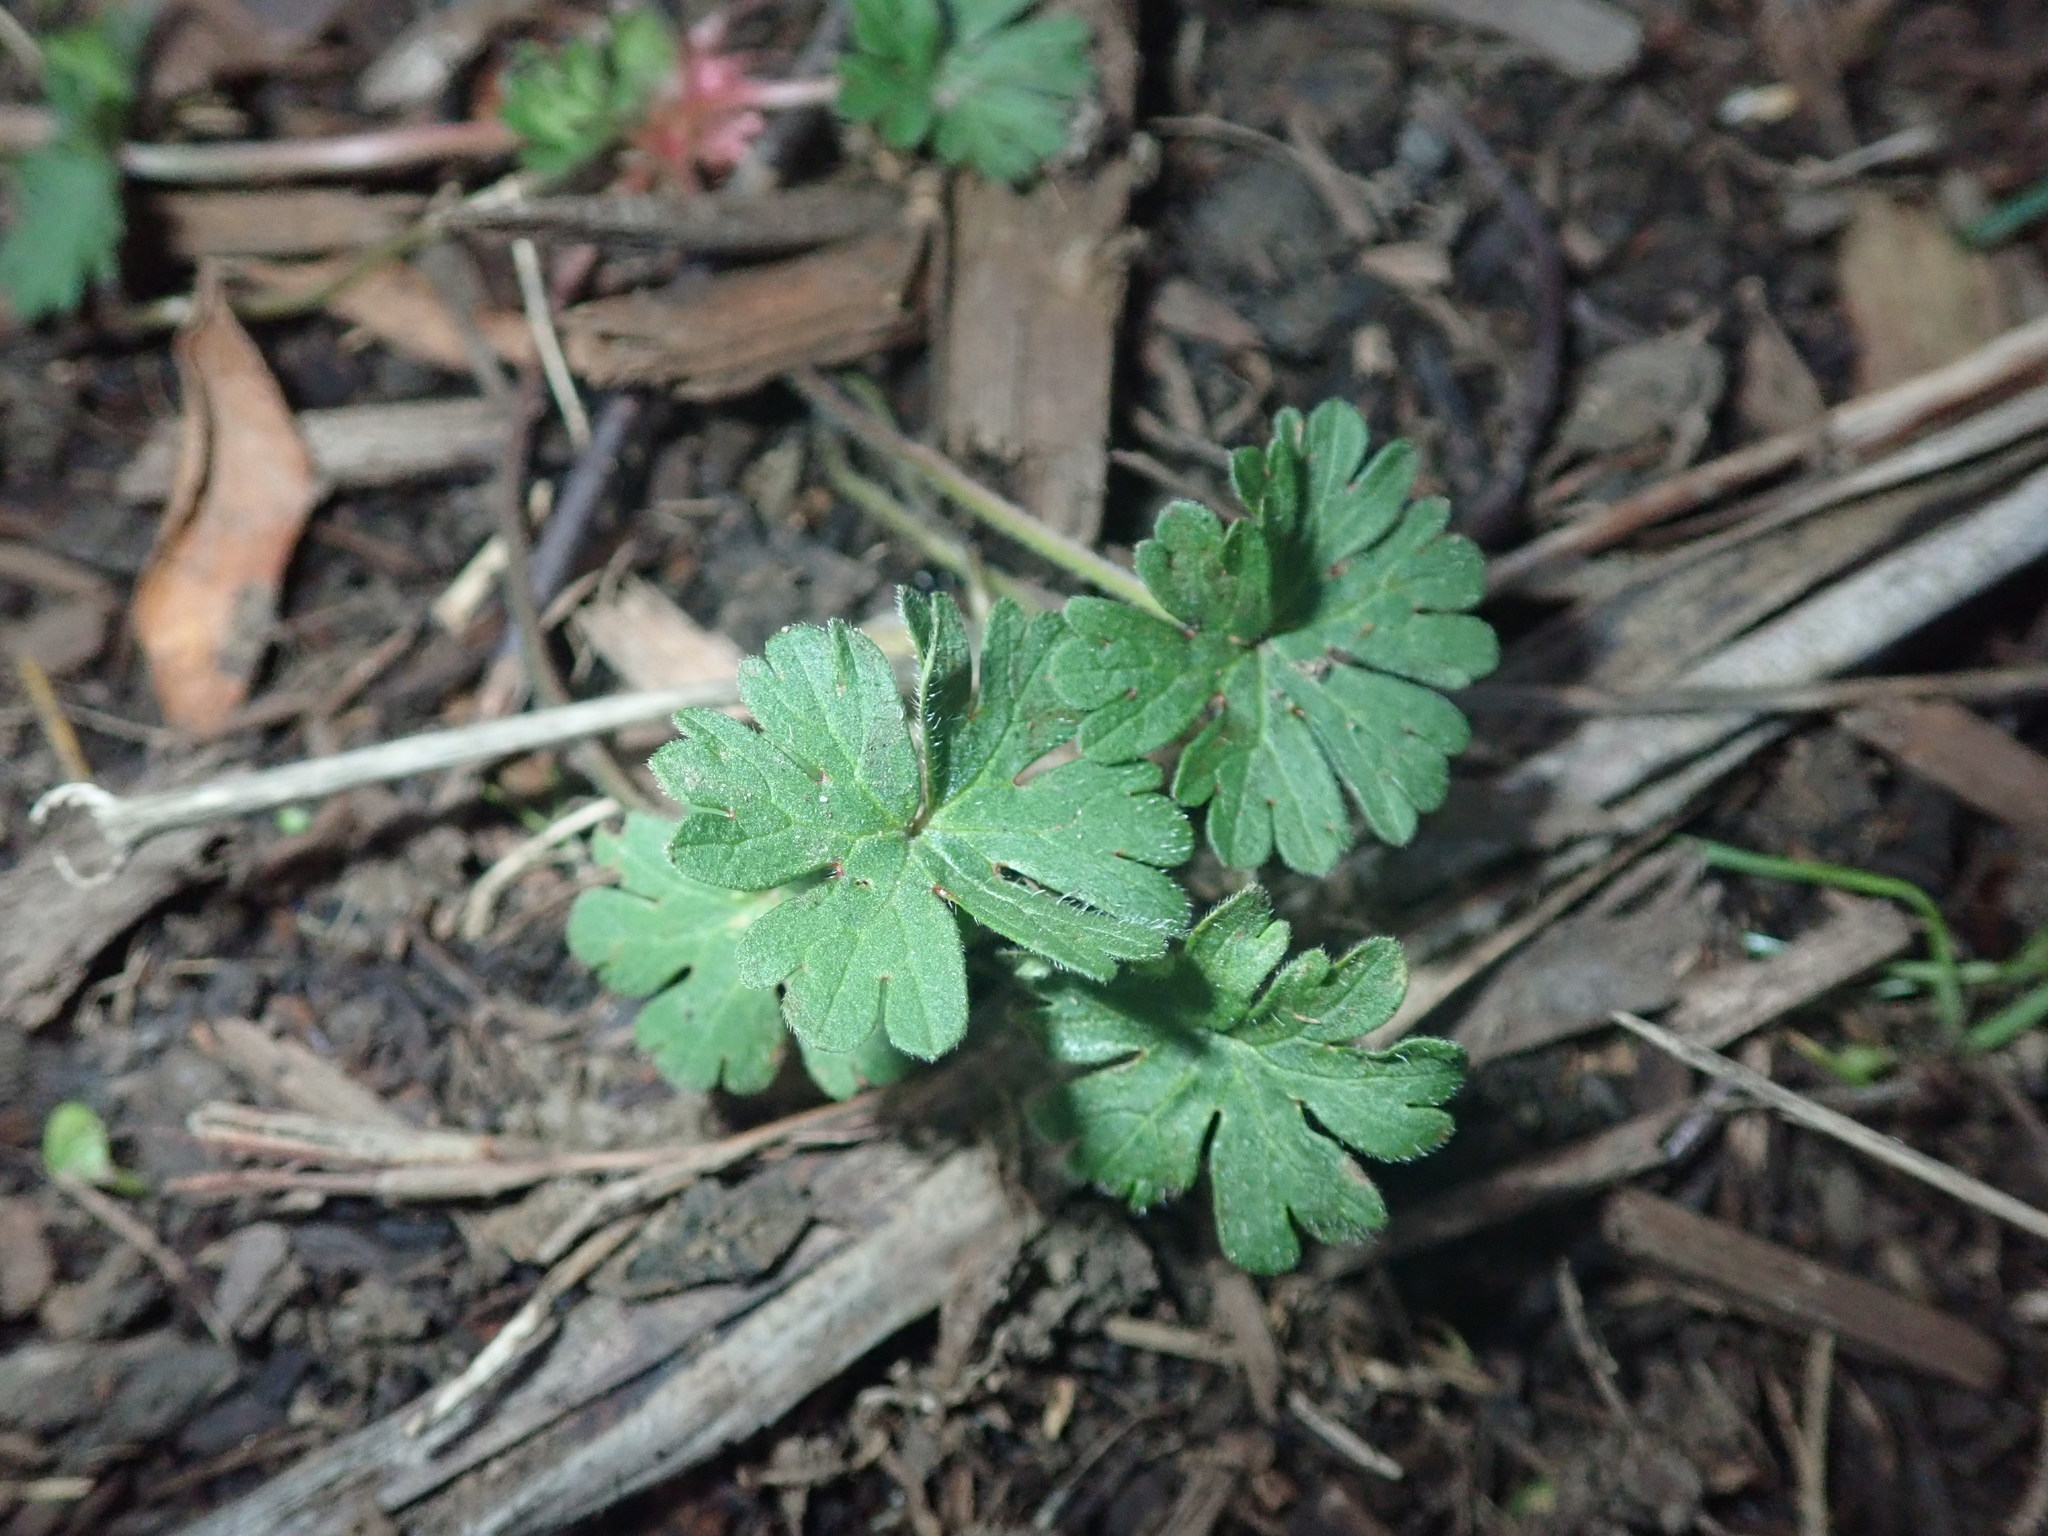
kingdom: Plantae
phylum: Tracheophyta
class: Magnoliopsida
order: Geraniales
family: Geraniaceae
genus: Geranium
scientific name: Geranium molle
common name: Dove's-foot crane's-bill
